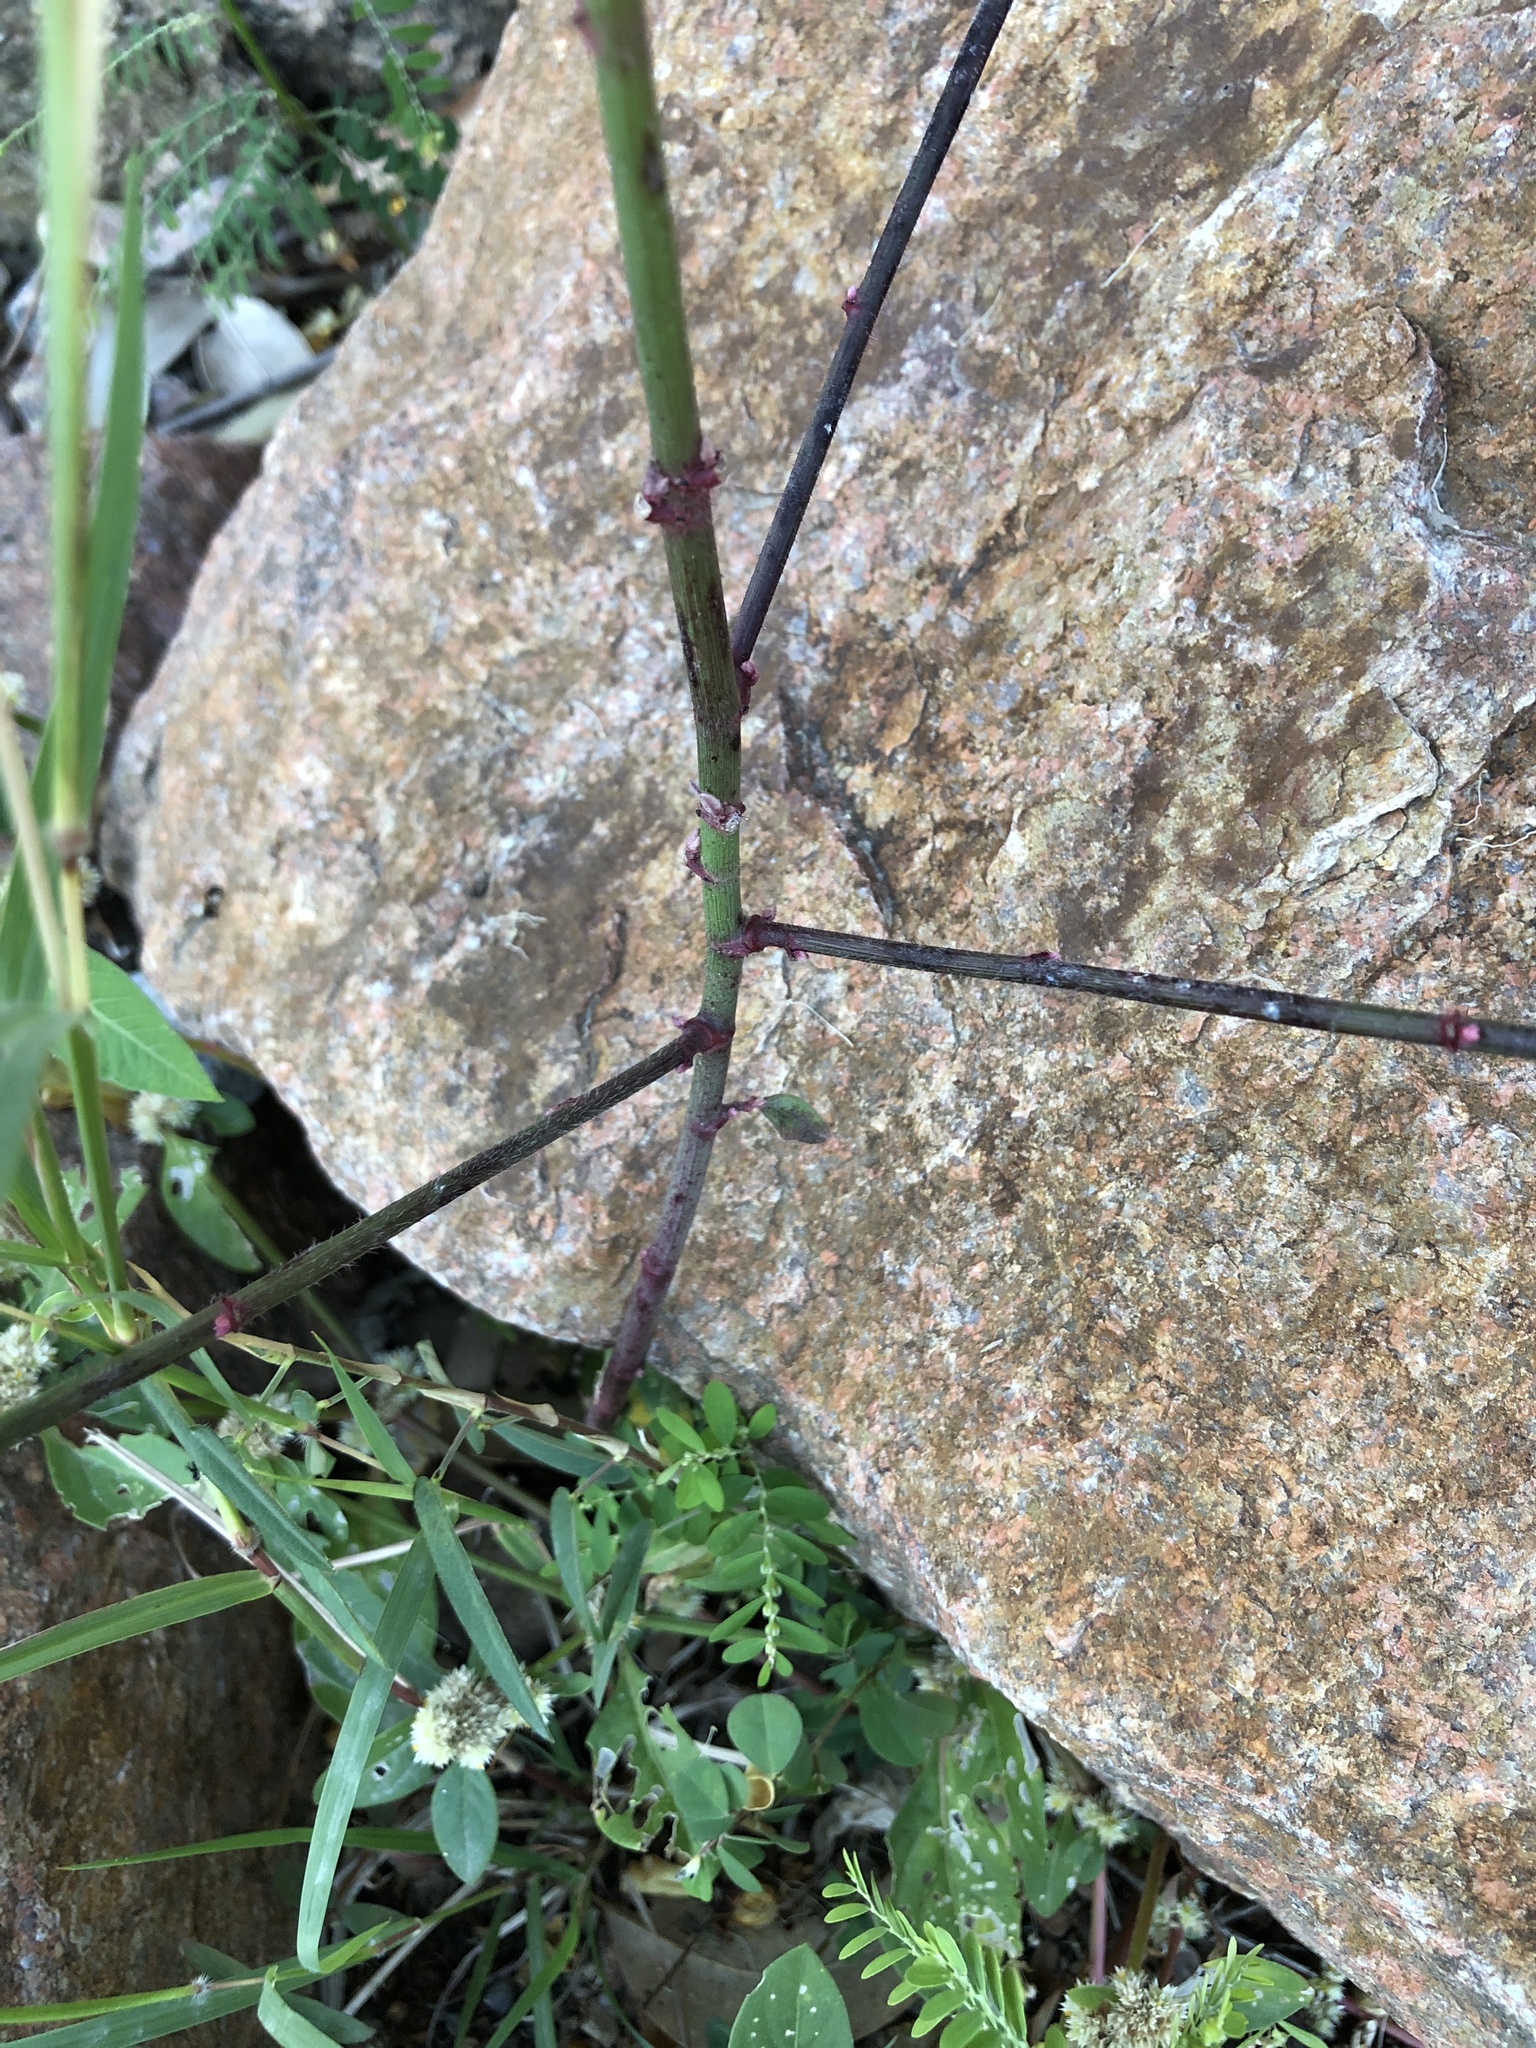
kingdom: Plantae
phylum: Tracheophyta
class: Magnoliopsida
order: Malpighiales
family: Euphorbiaceae
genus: Euphorbia
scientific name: Euphorbia heterophylla
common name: Mexican fireplant
